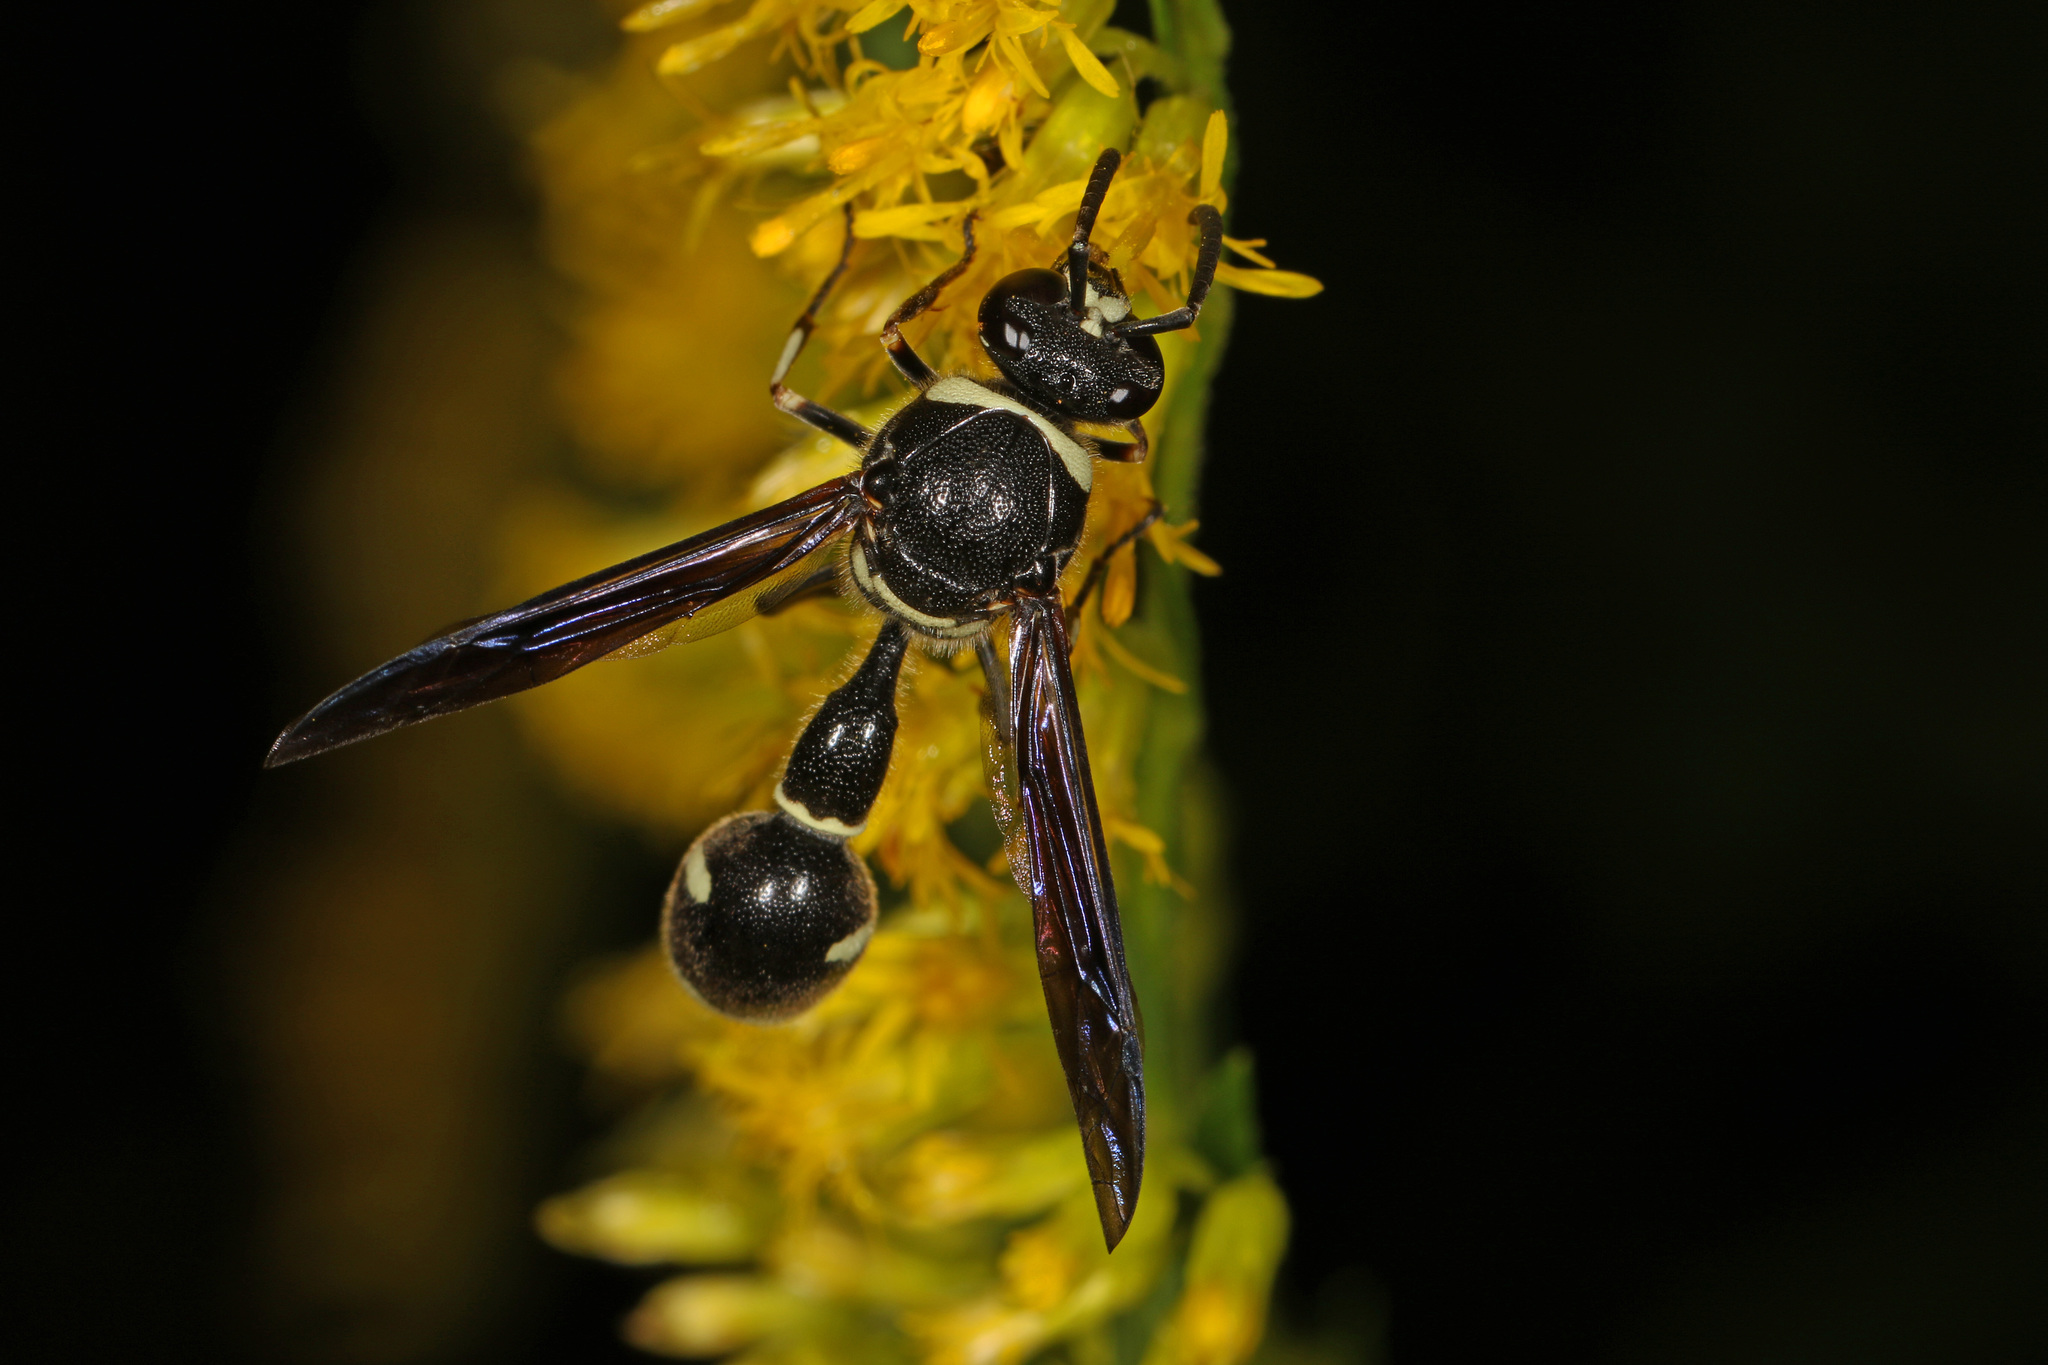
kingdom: Animalia
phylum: Arthropoda
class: Insecta
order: Hymenoptera
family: Vespidae
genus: Eumenes
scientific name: Eumenes fraternus
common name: Fraternal potter wasp
